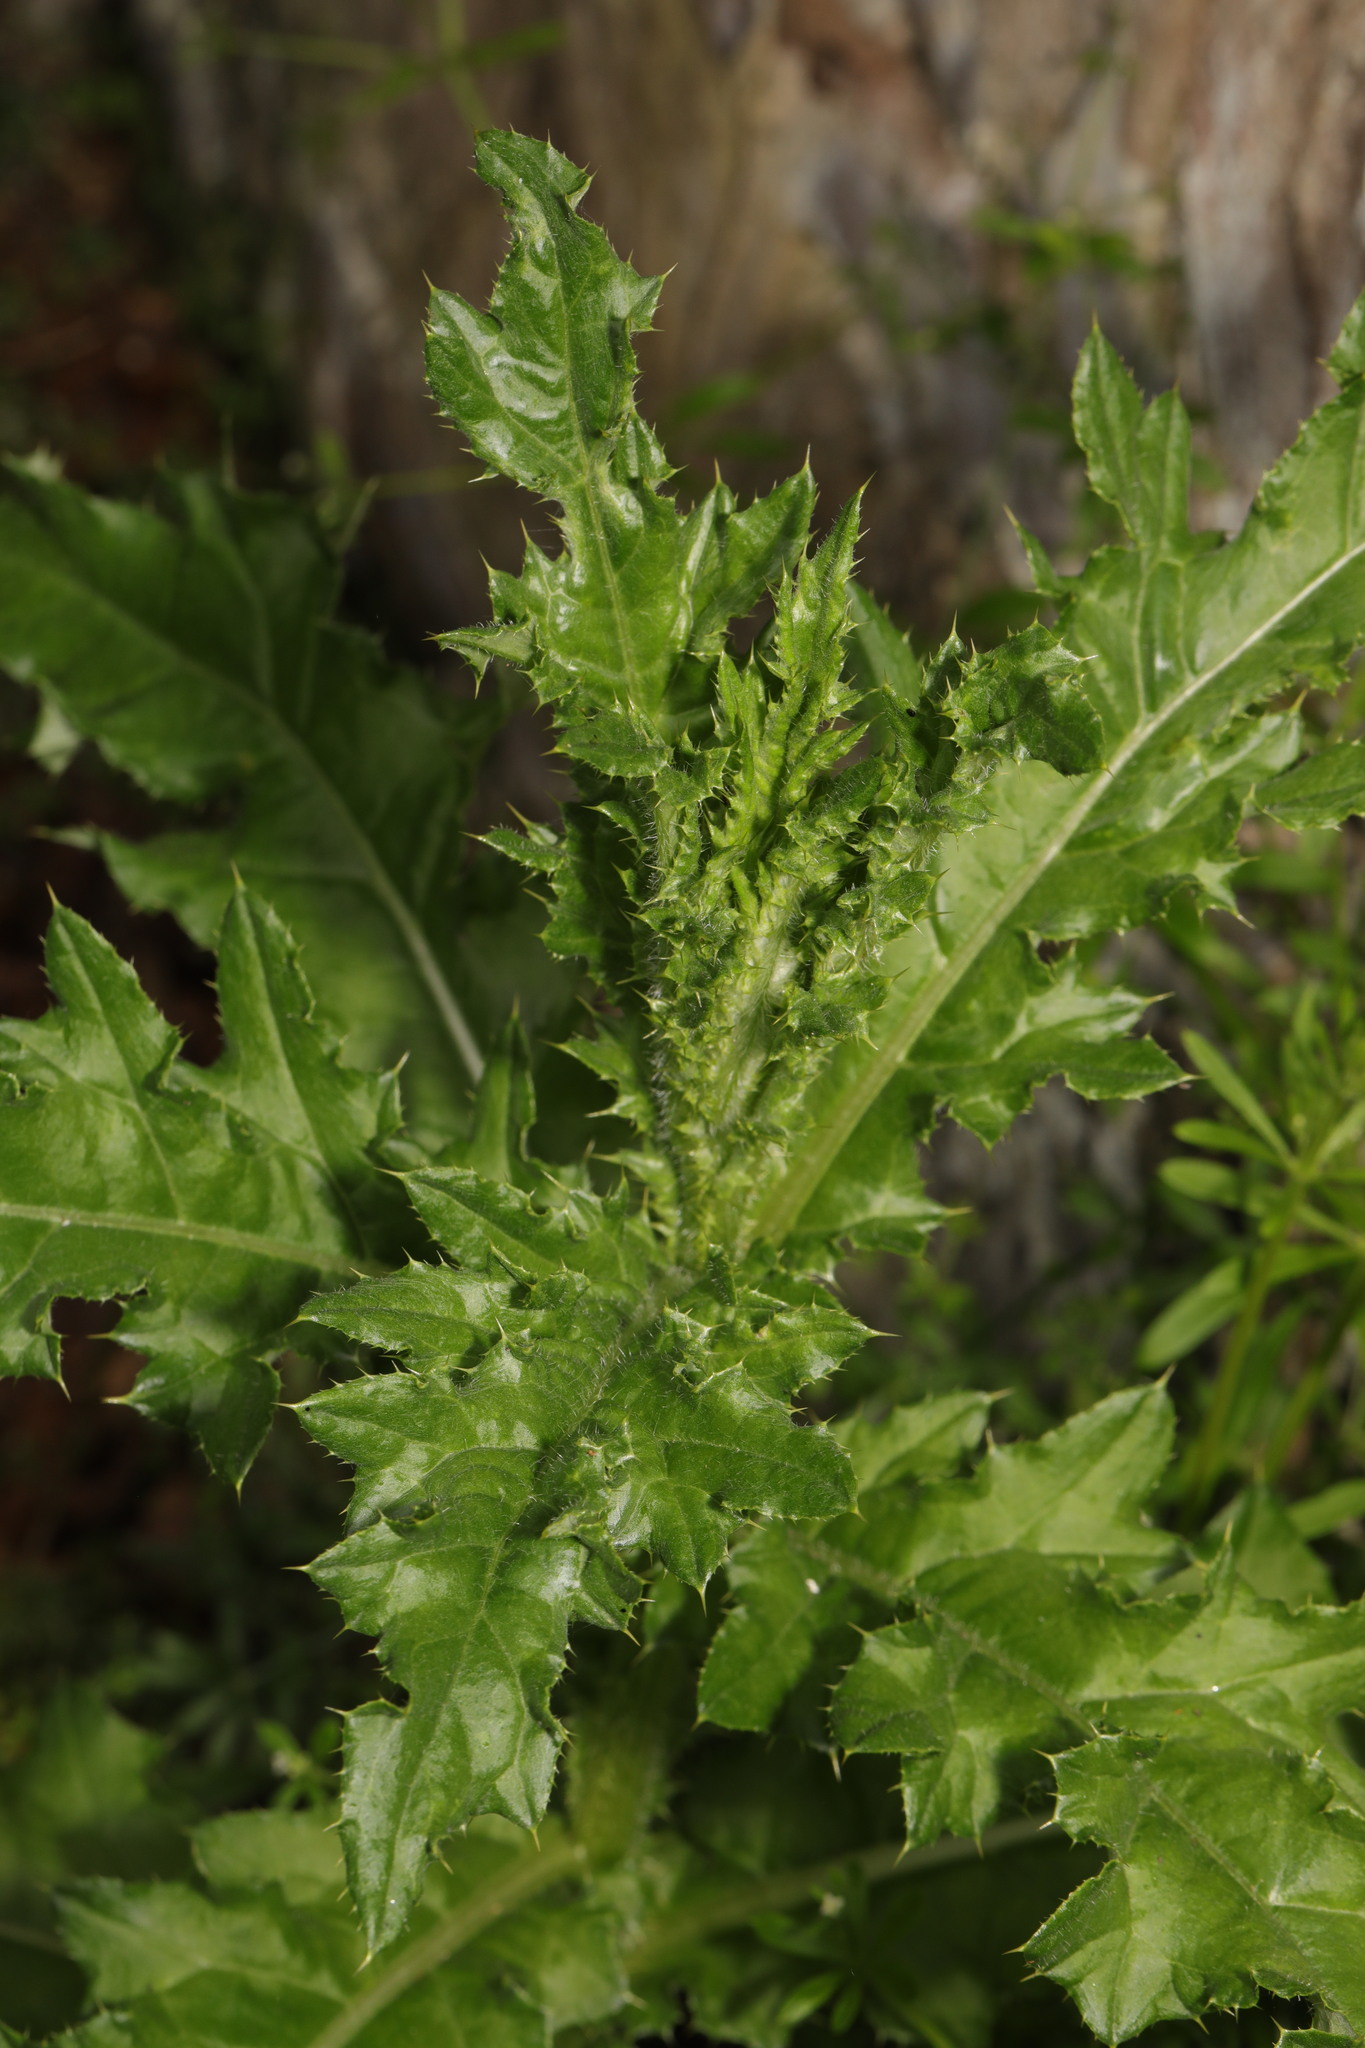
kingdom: Plantae
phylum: Tracheophyta
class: Magnoliopsida
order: Asterales
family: Asteraceae
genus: Cirsium
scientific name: Cirsium arvense
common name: Creeping thistle
